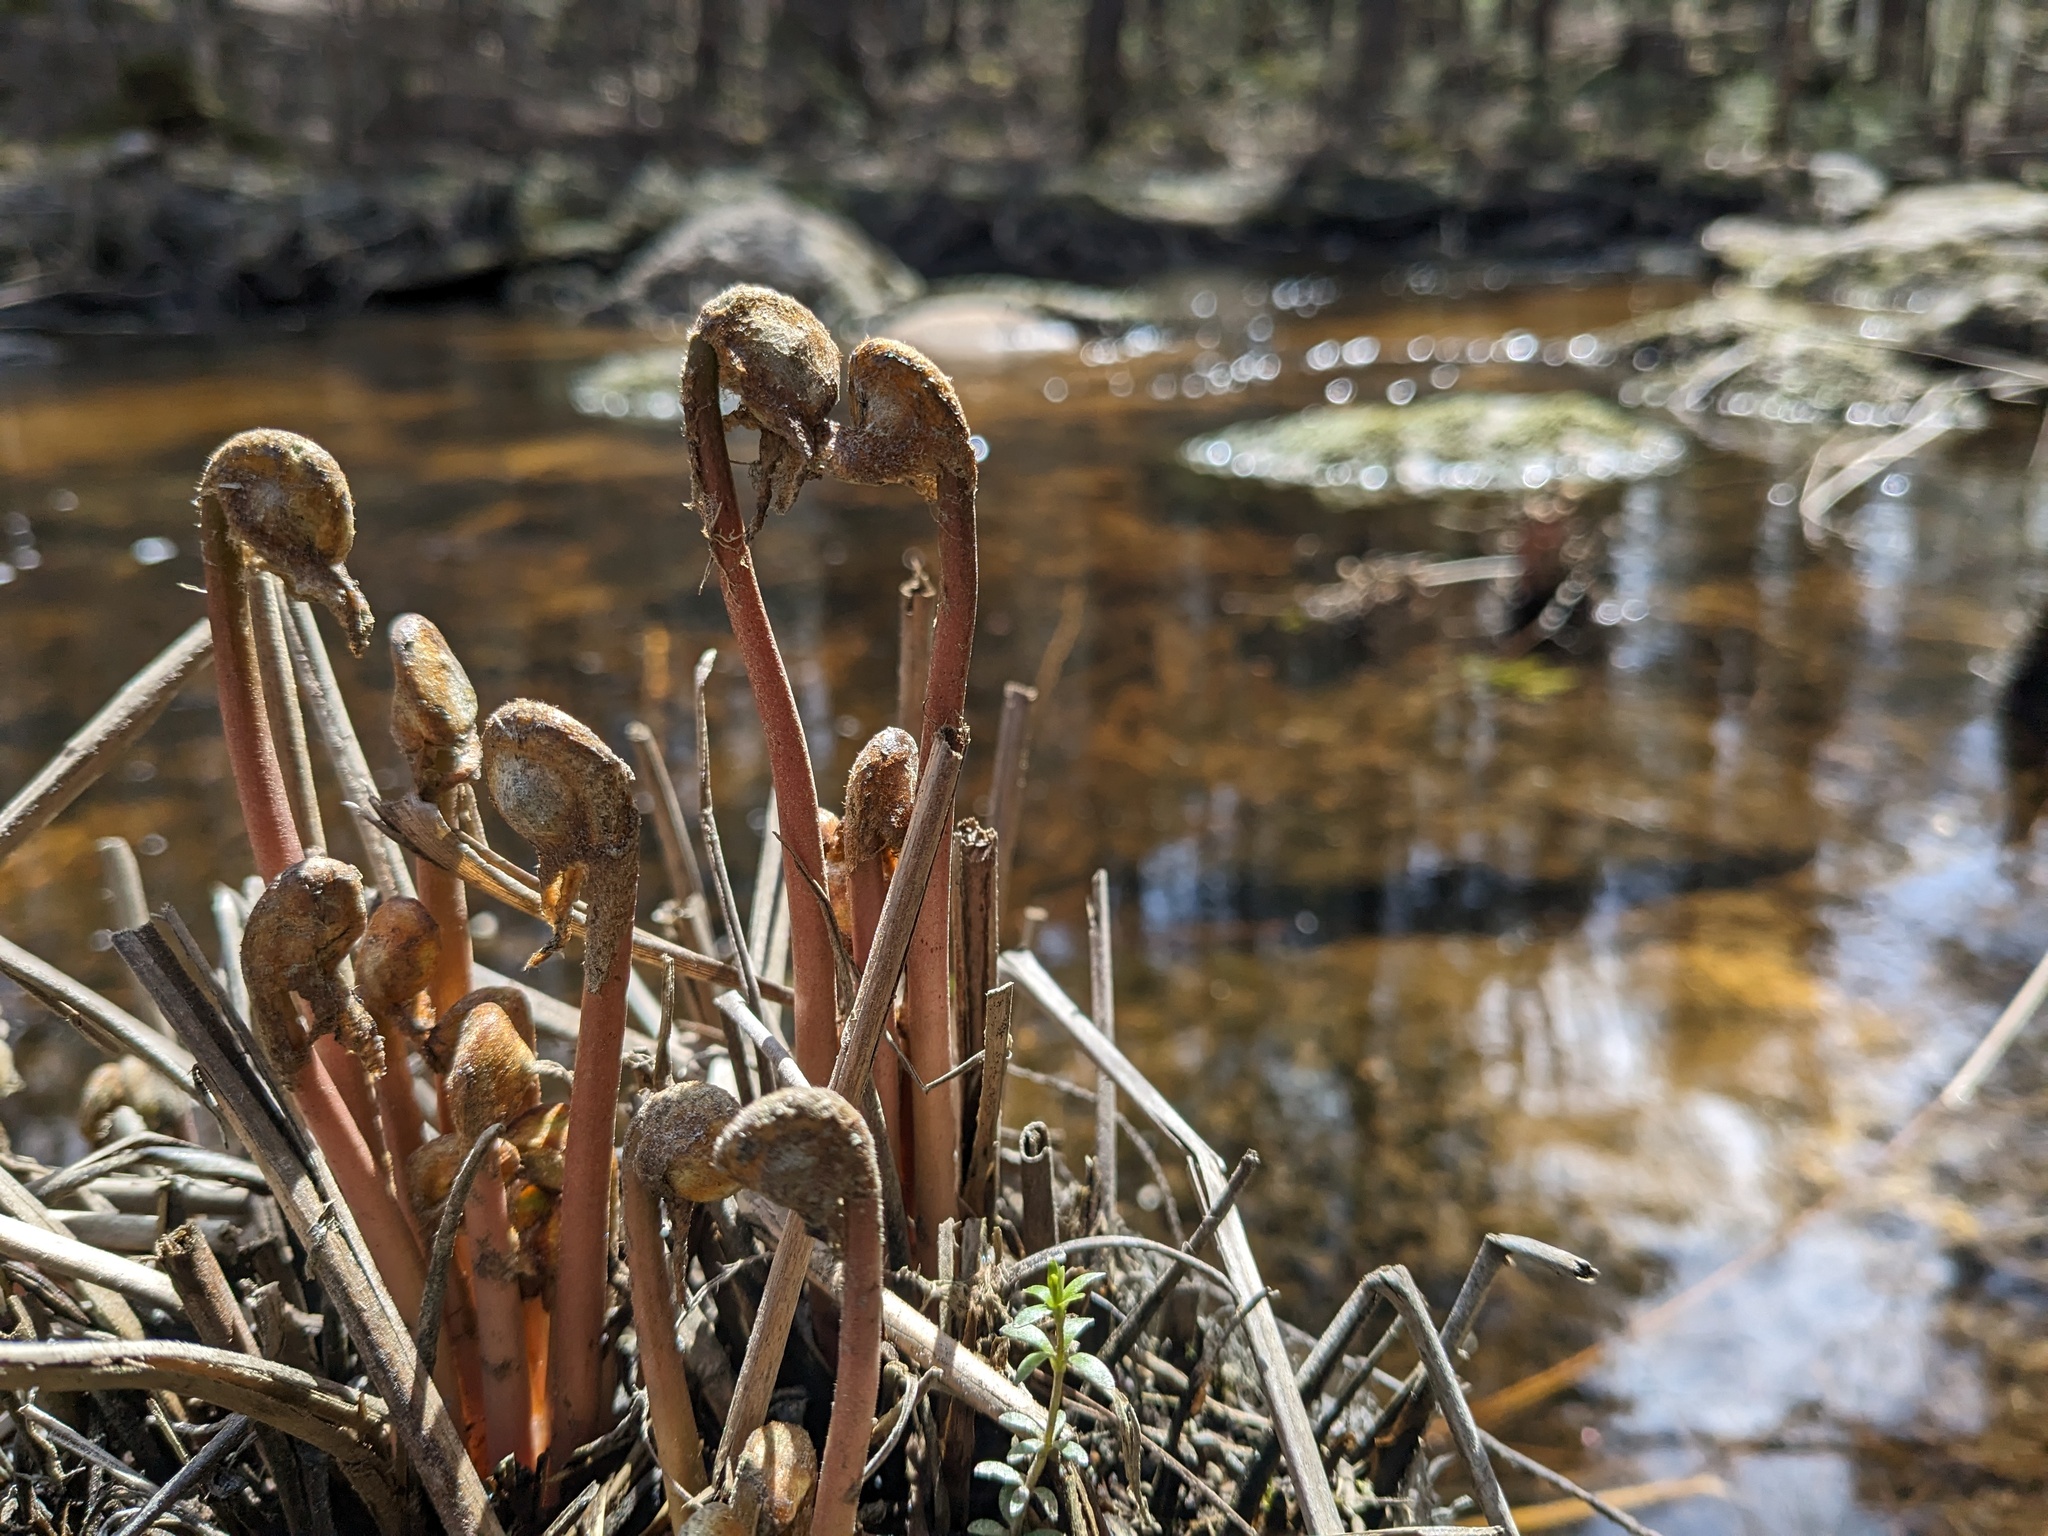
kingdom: Plantae
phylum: Tracheophyta
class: Polypodiopsida
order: Osmundales
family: Osmundaceae
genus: Osmunda
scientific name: Osmunda spectabilis
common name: American royal fern
